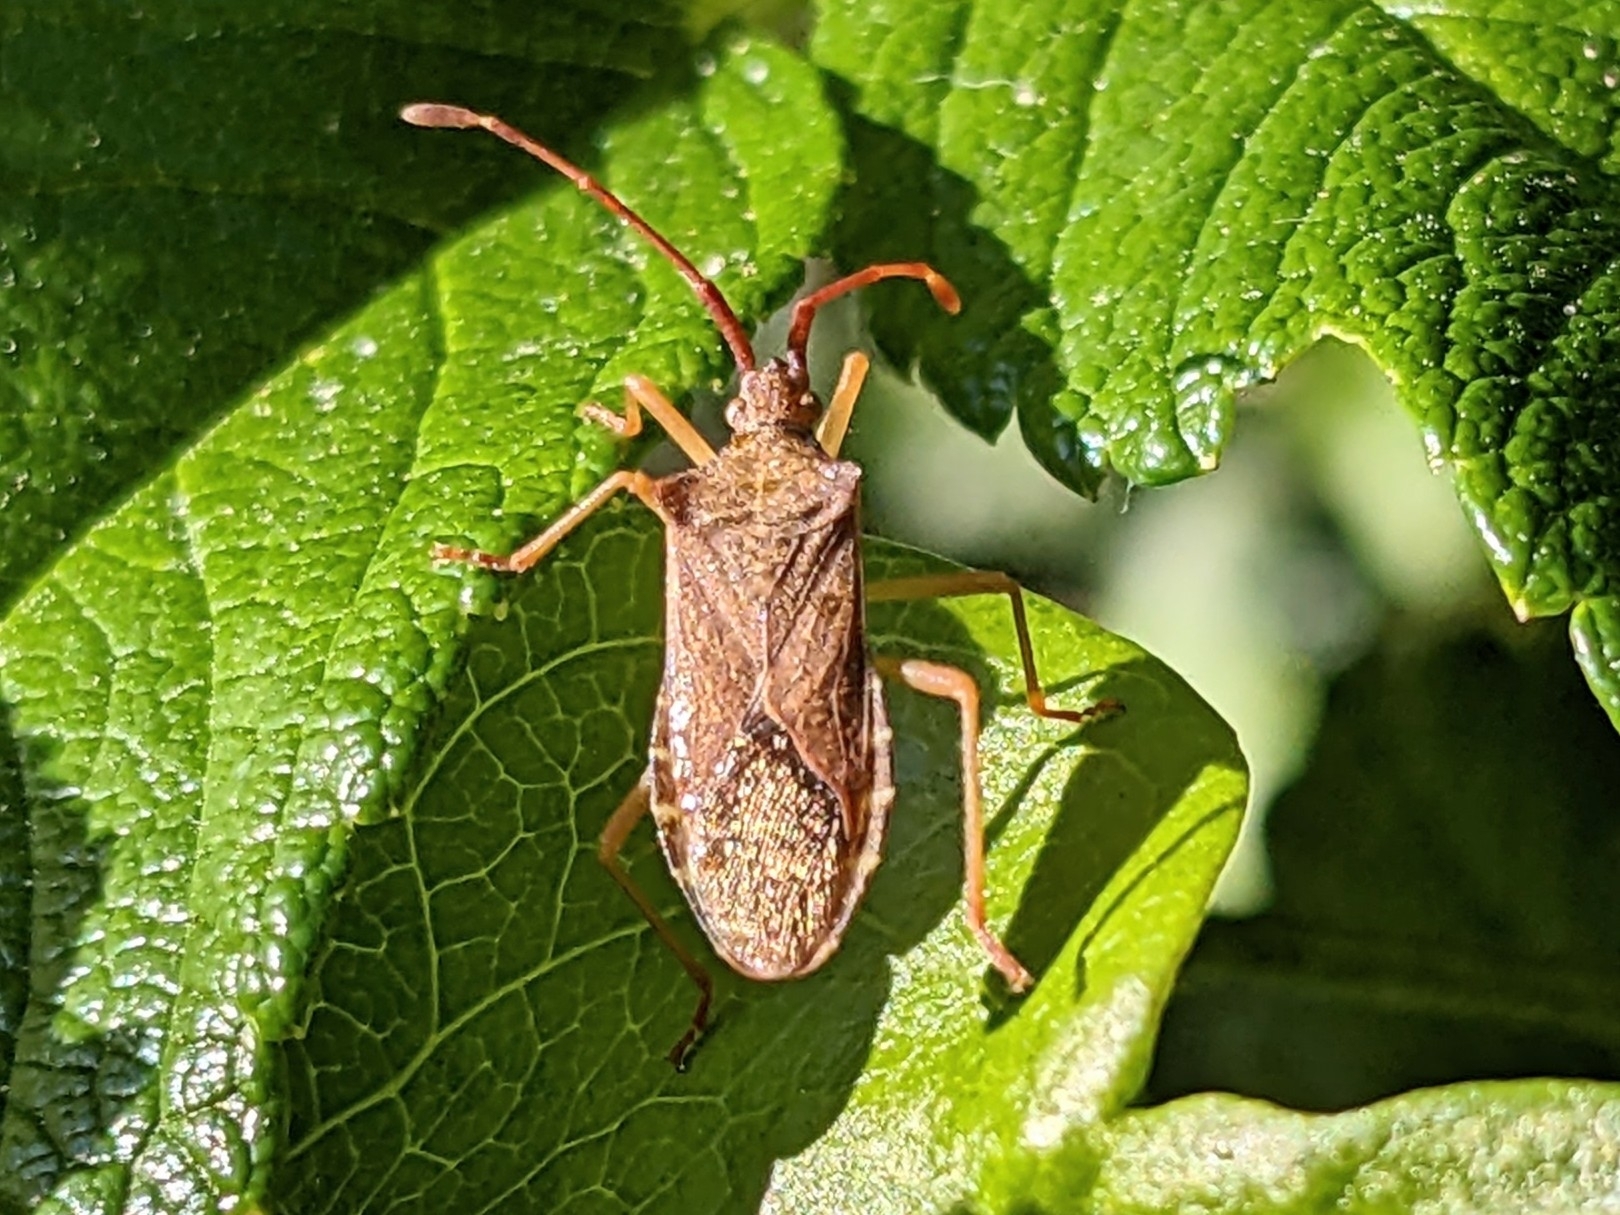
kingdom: Animalia
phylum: Arthropoda
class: Insecta
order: Hemiptera
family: Coreidae
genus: Gonocerus
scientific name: Gonocerus acuteangulatus
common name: Box bug
